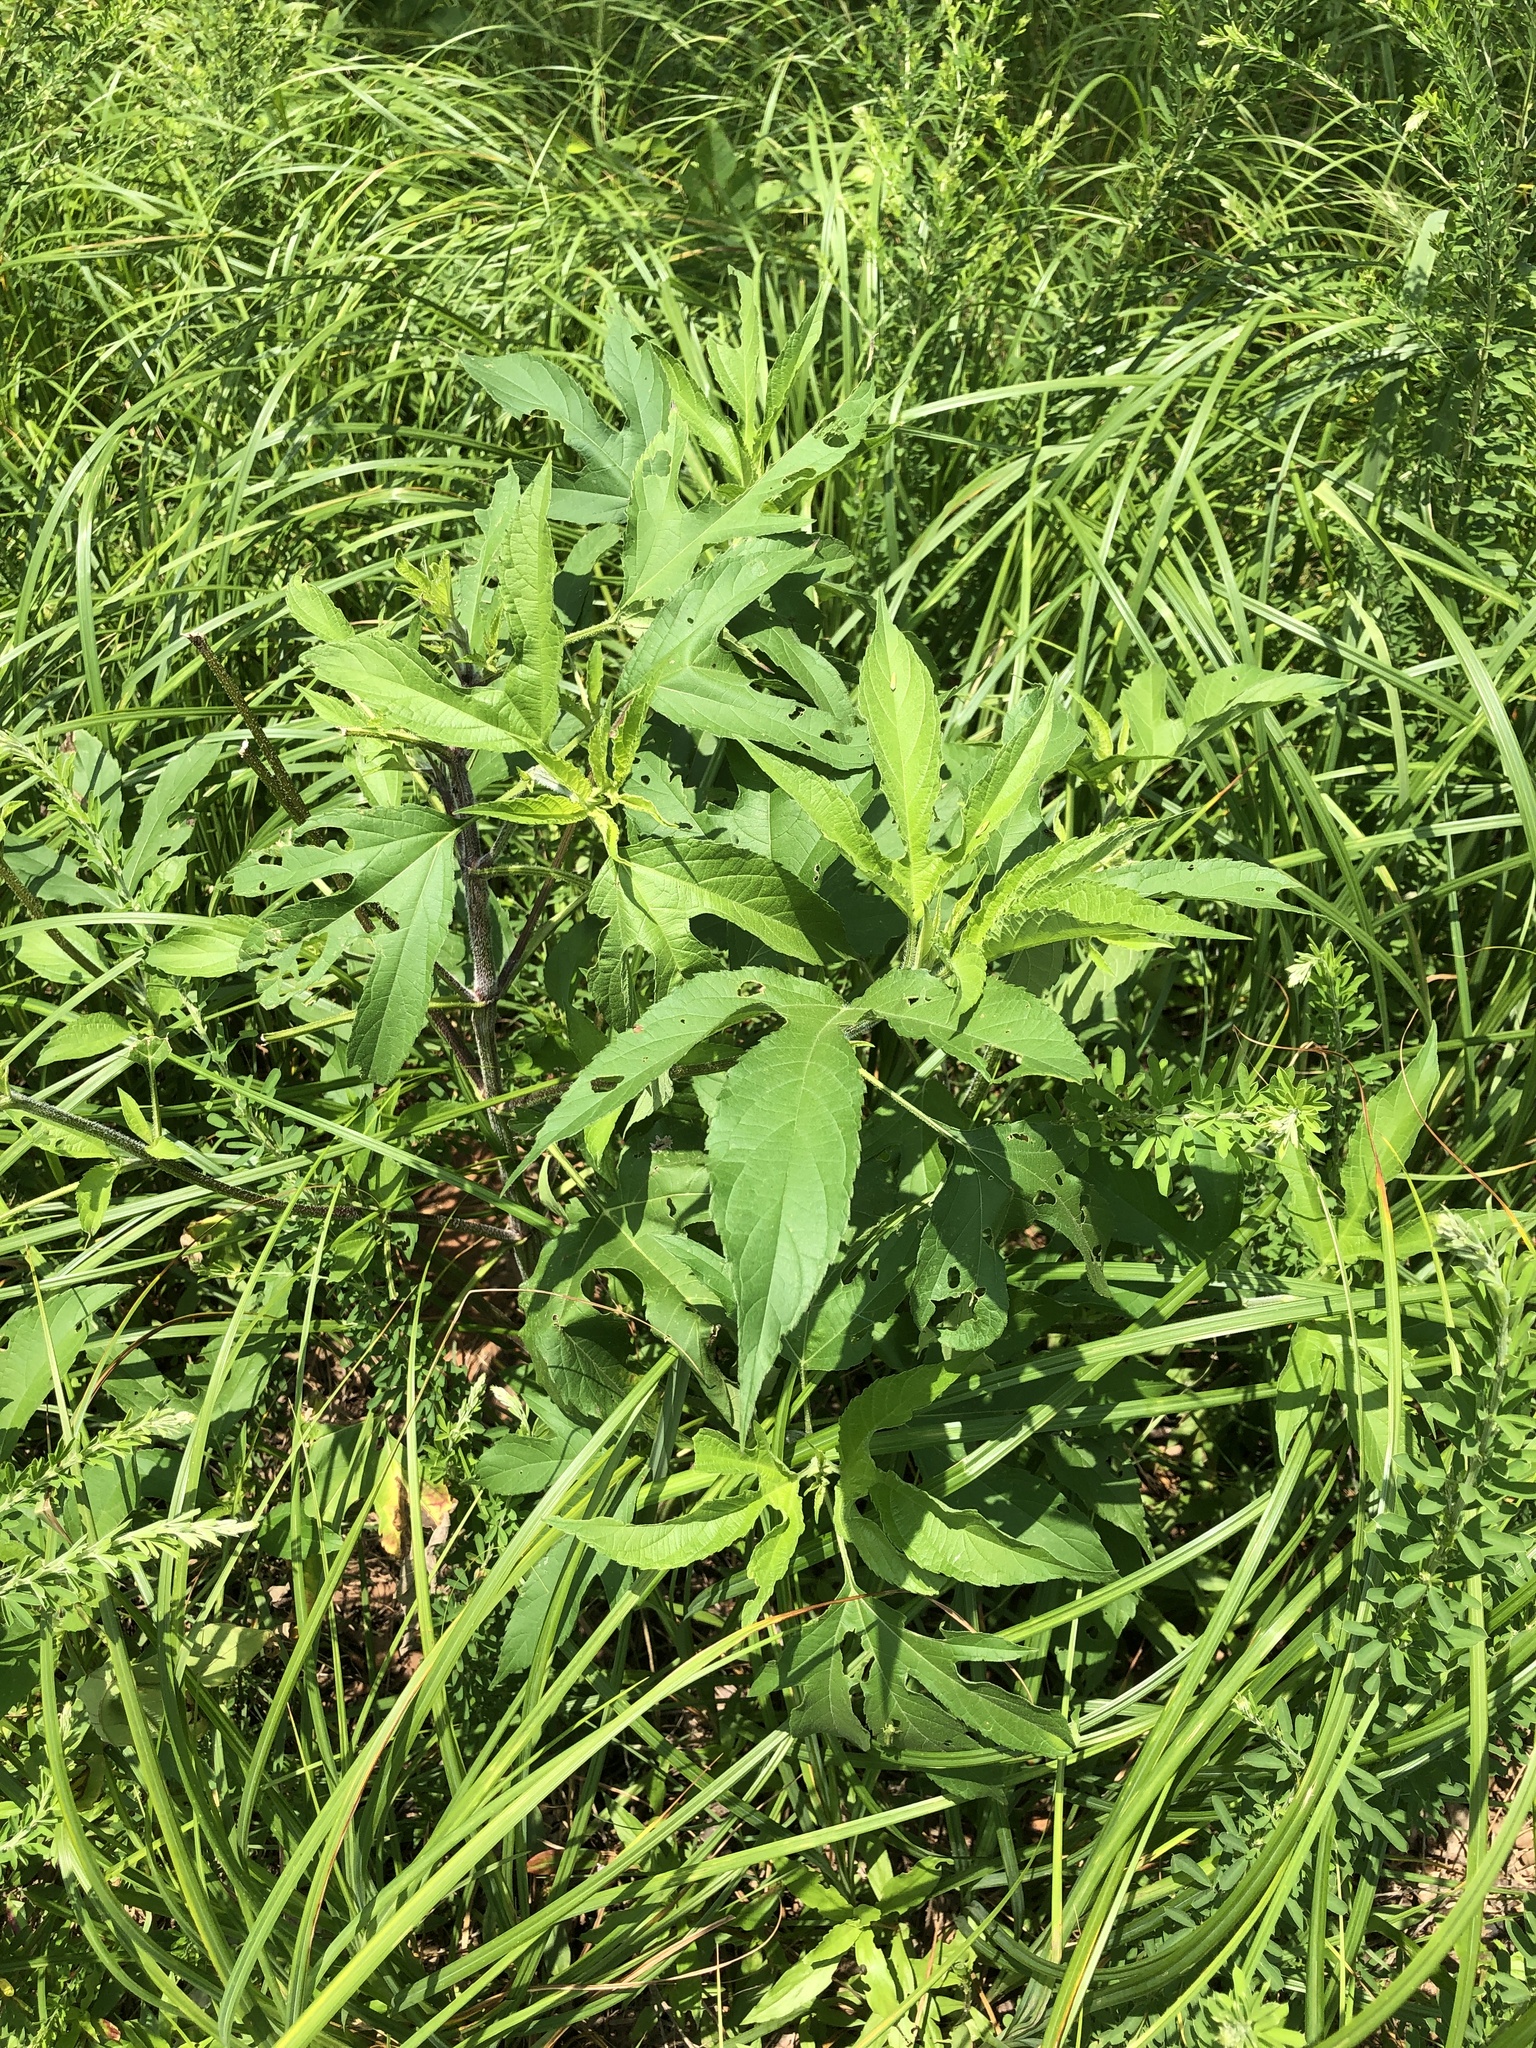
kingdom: Plantae
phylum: Tracheophyta
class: Magnoliopsida
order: Asterales
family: Asteraceae
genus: Ambrosia
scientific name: Ambrosia trifida
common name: Giant ragweed
